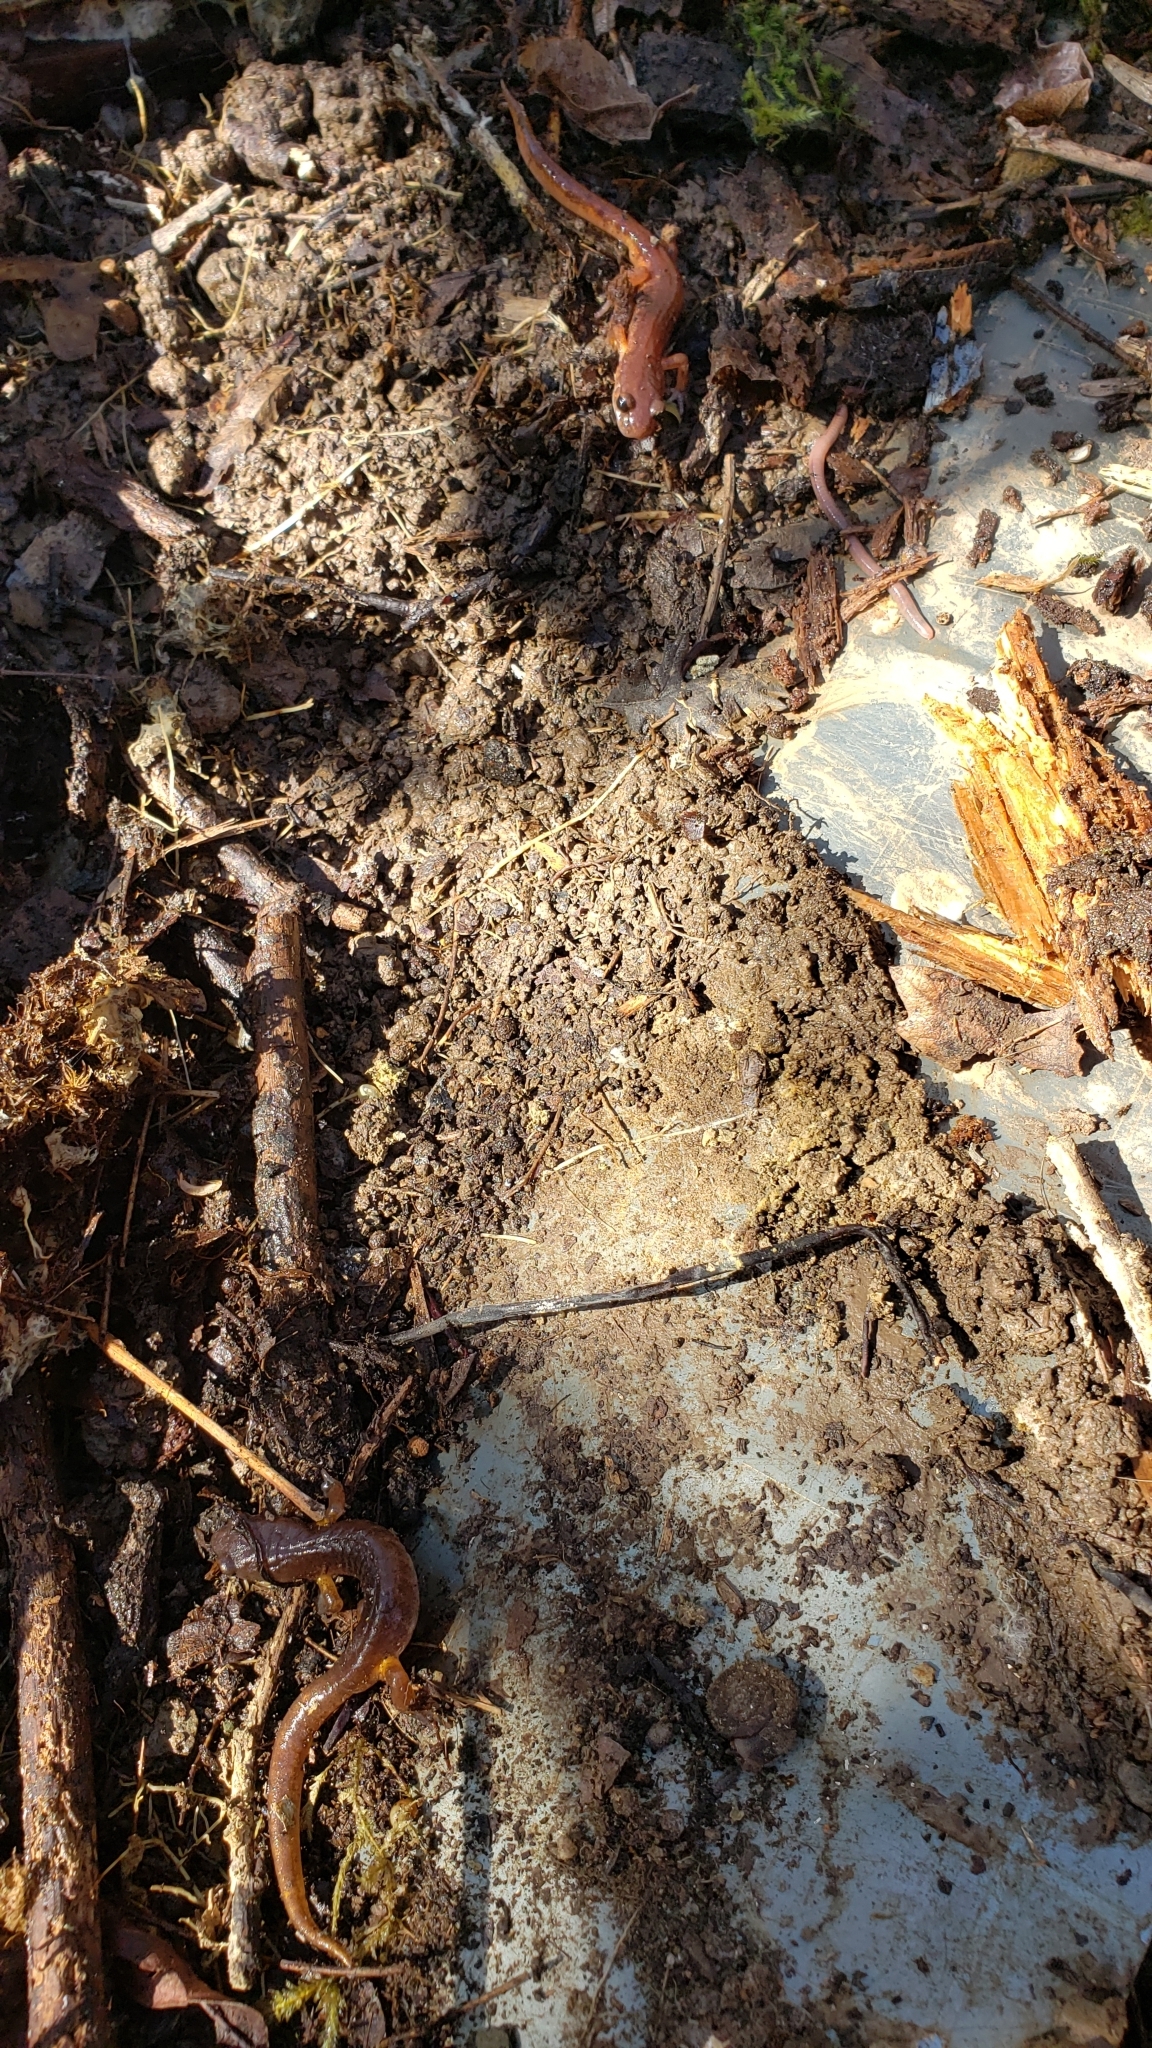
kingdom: Animalia
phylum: Chordata
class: Amphibia
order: Caudata
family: Plethodontidae
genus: Ensatina
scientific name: Ensatina eschscholtzii
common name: Ensatina
